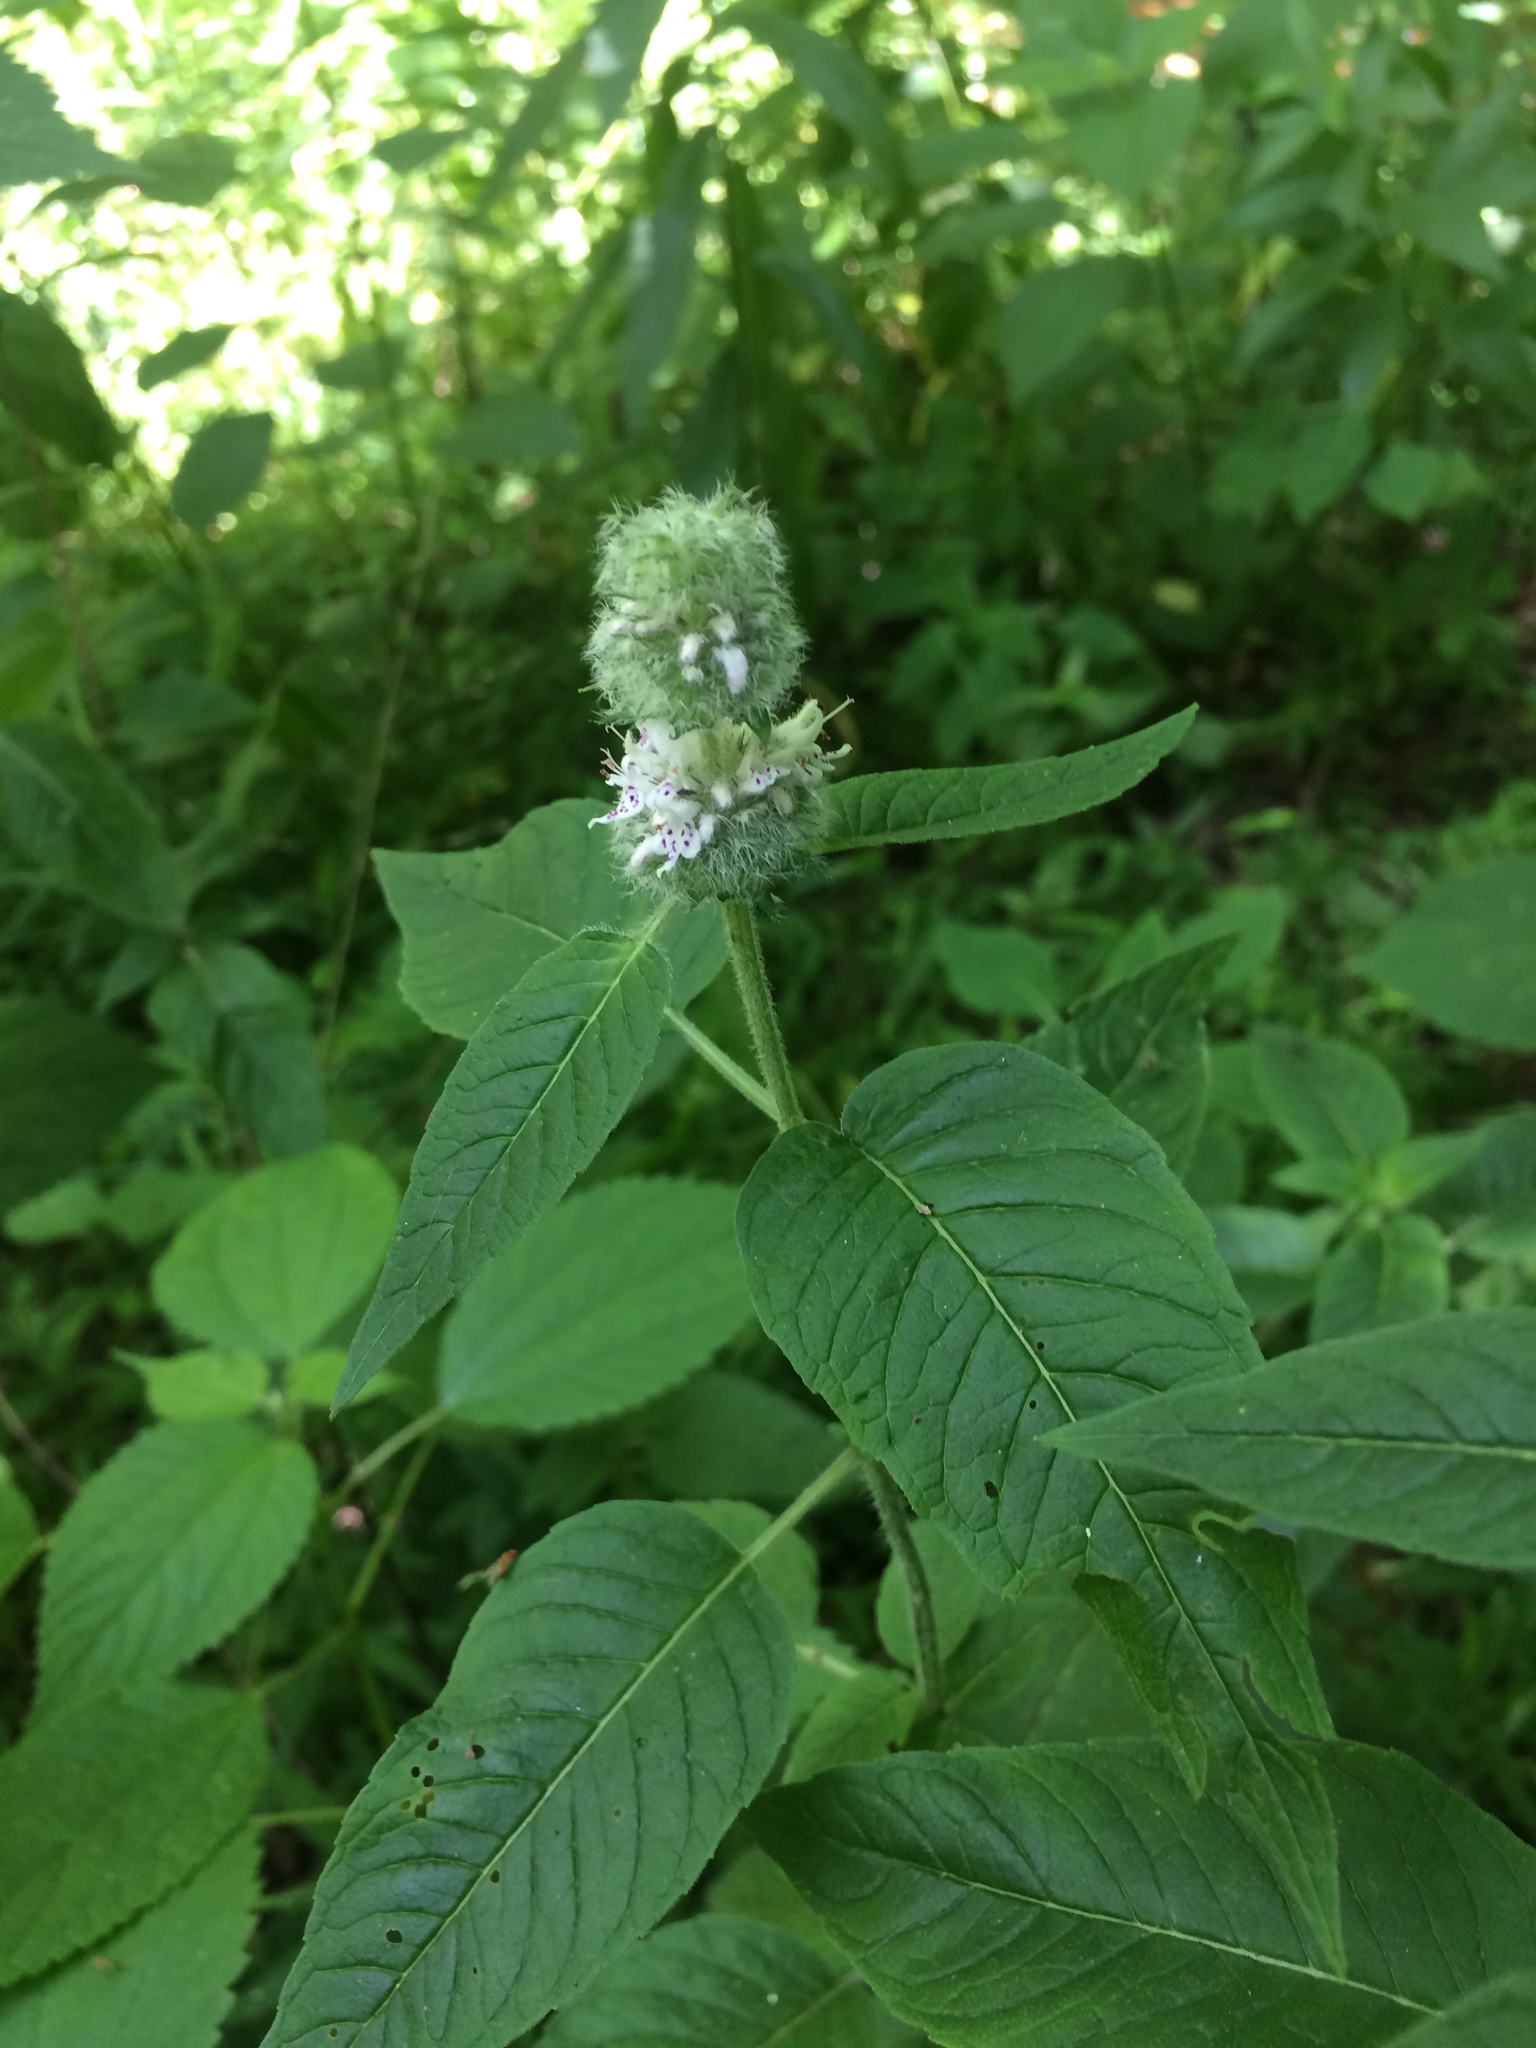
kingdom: Plantae
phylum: Tracheophyta
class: Magnoliopsida
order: Lamiales
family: Lamiaceae
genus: Blephilia
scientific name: Blephilia hirsuta
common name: Hairy blephilia
